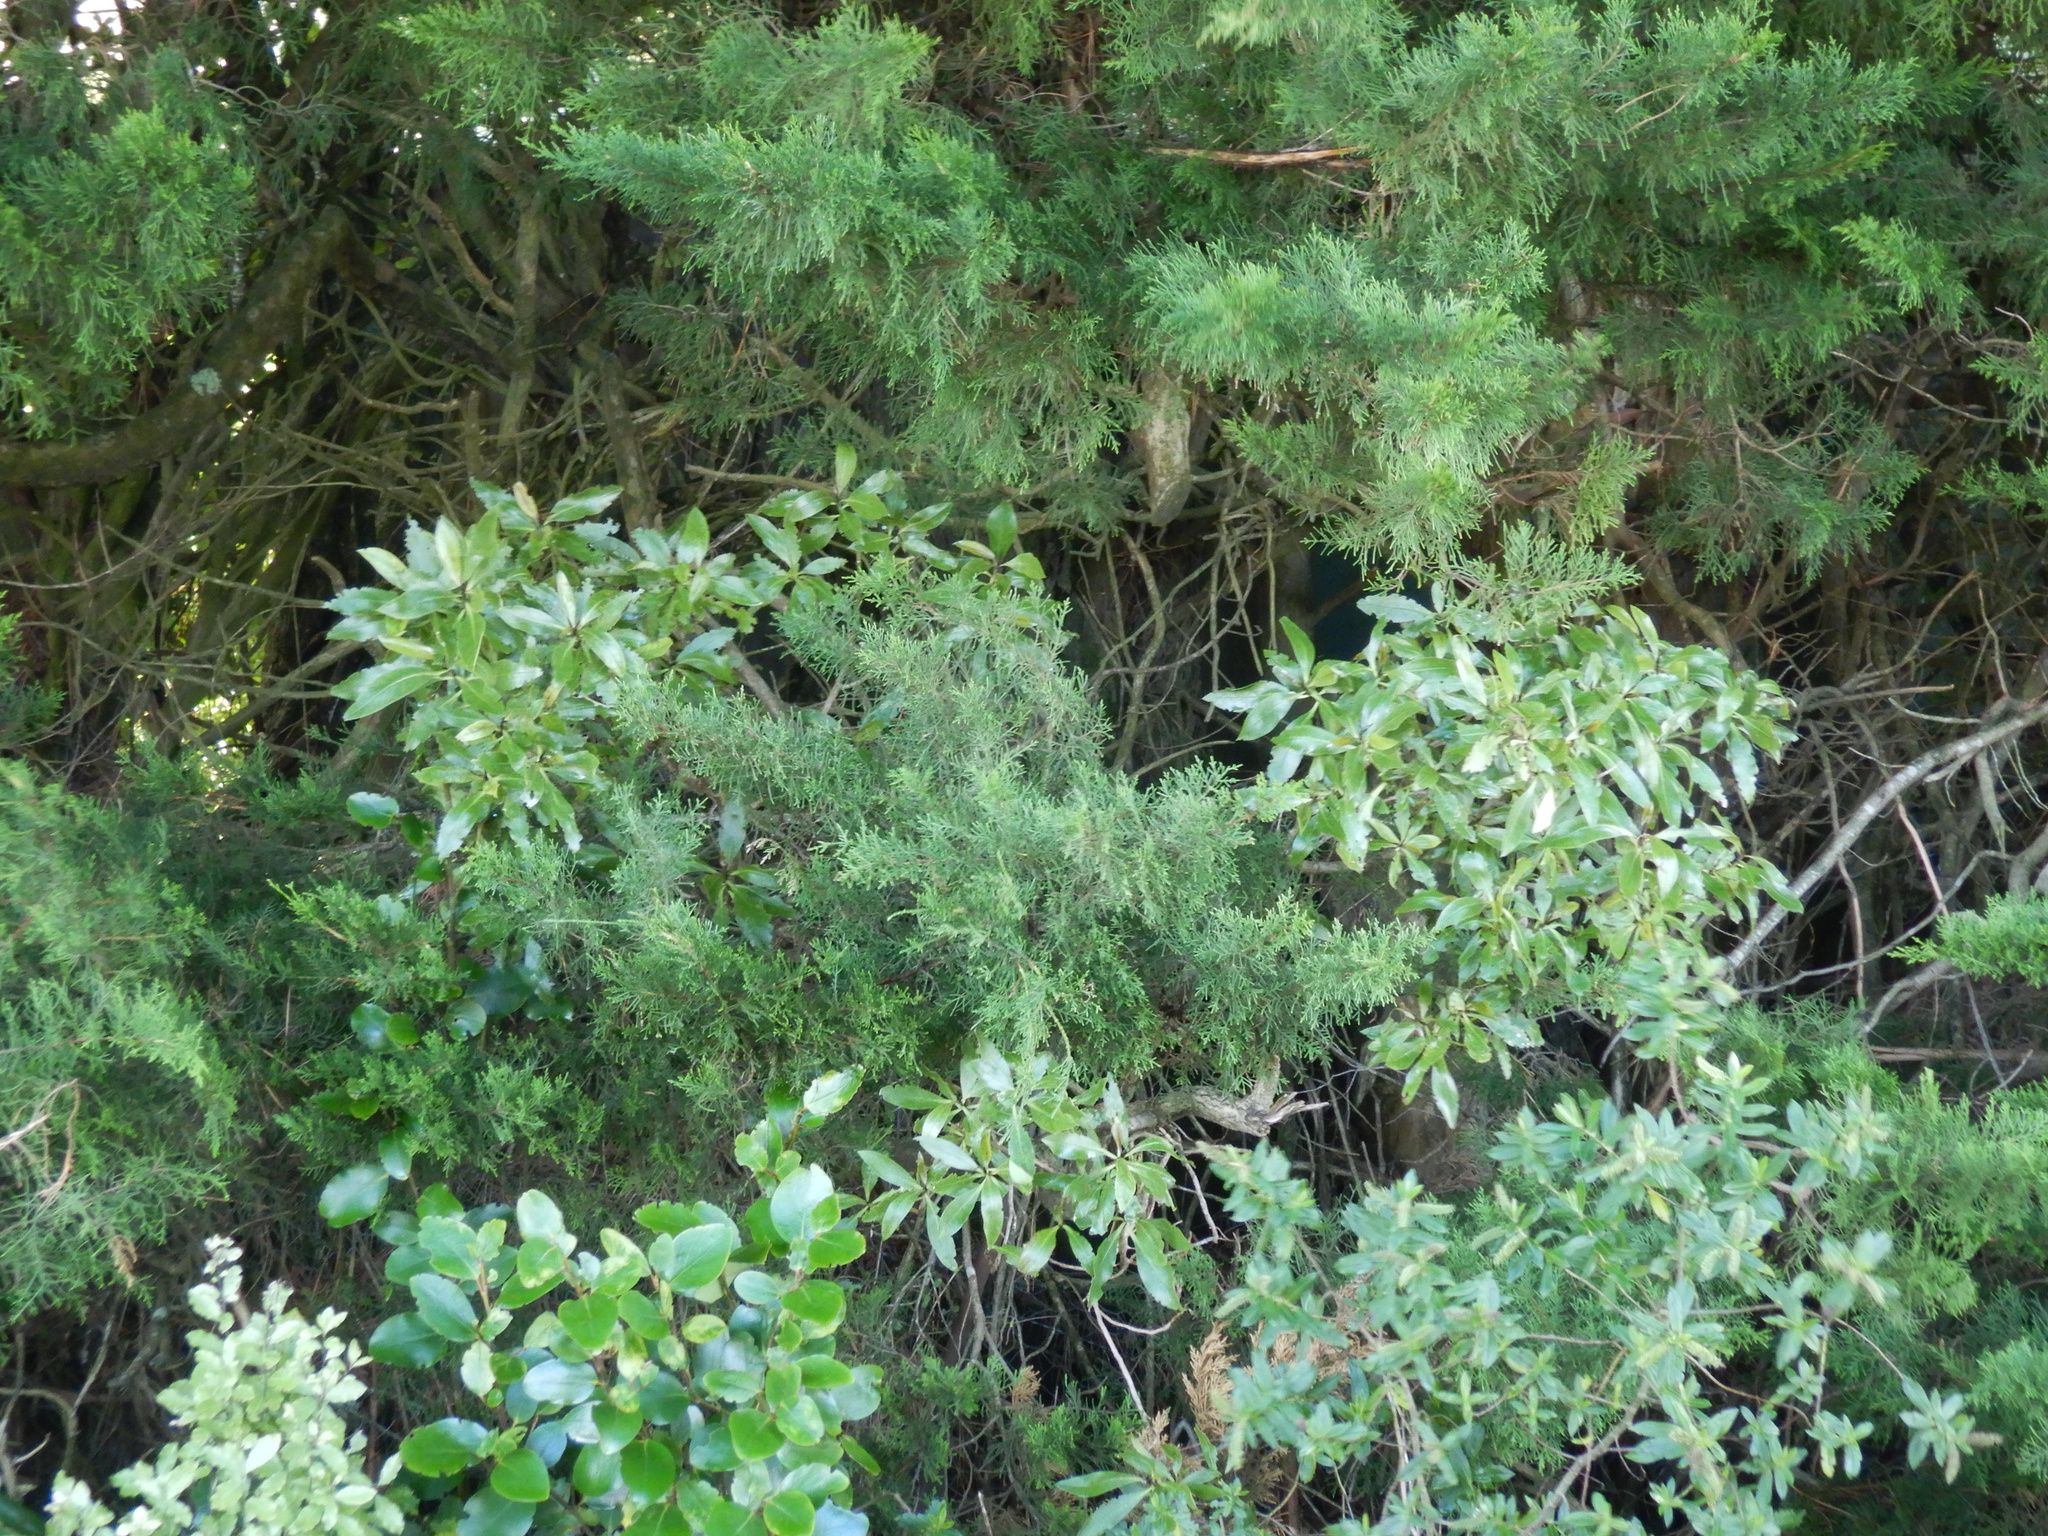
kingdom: Plantae
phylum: Tracheophyta
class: Magnoliopsida
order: Apiales
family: Griseliniaceae
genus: Griselinia
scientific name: Griselinia littoralis
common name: New zealand broadleaf
